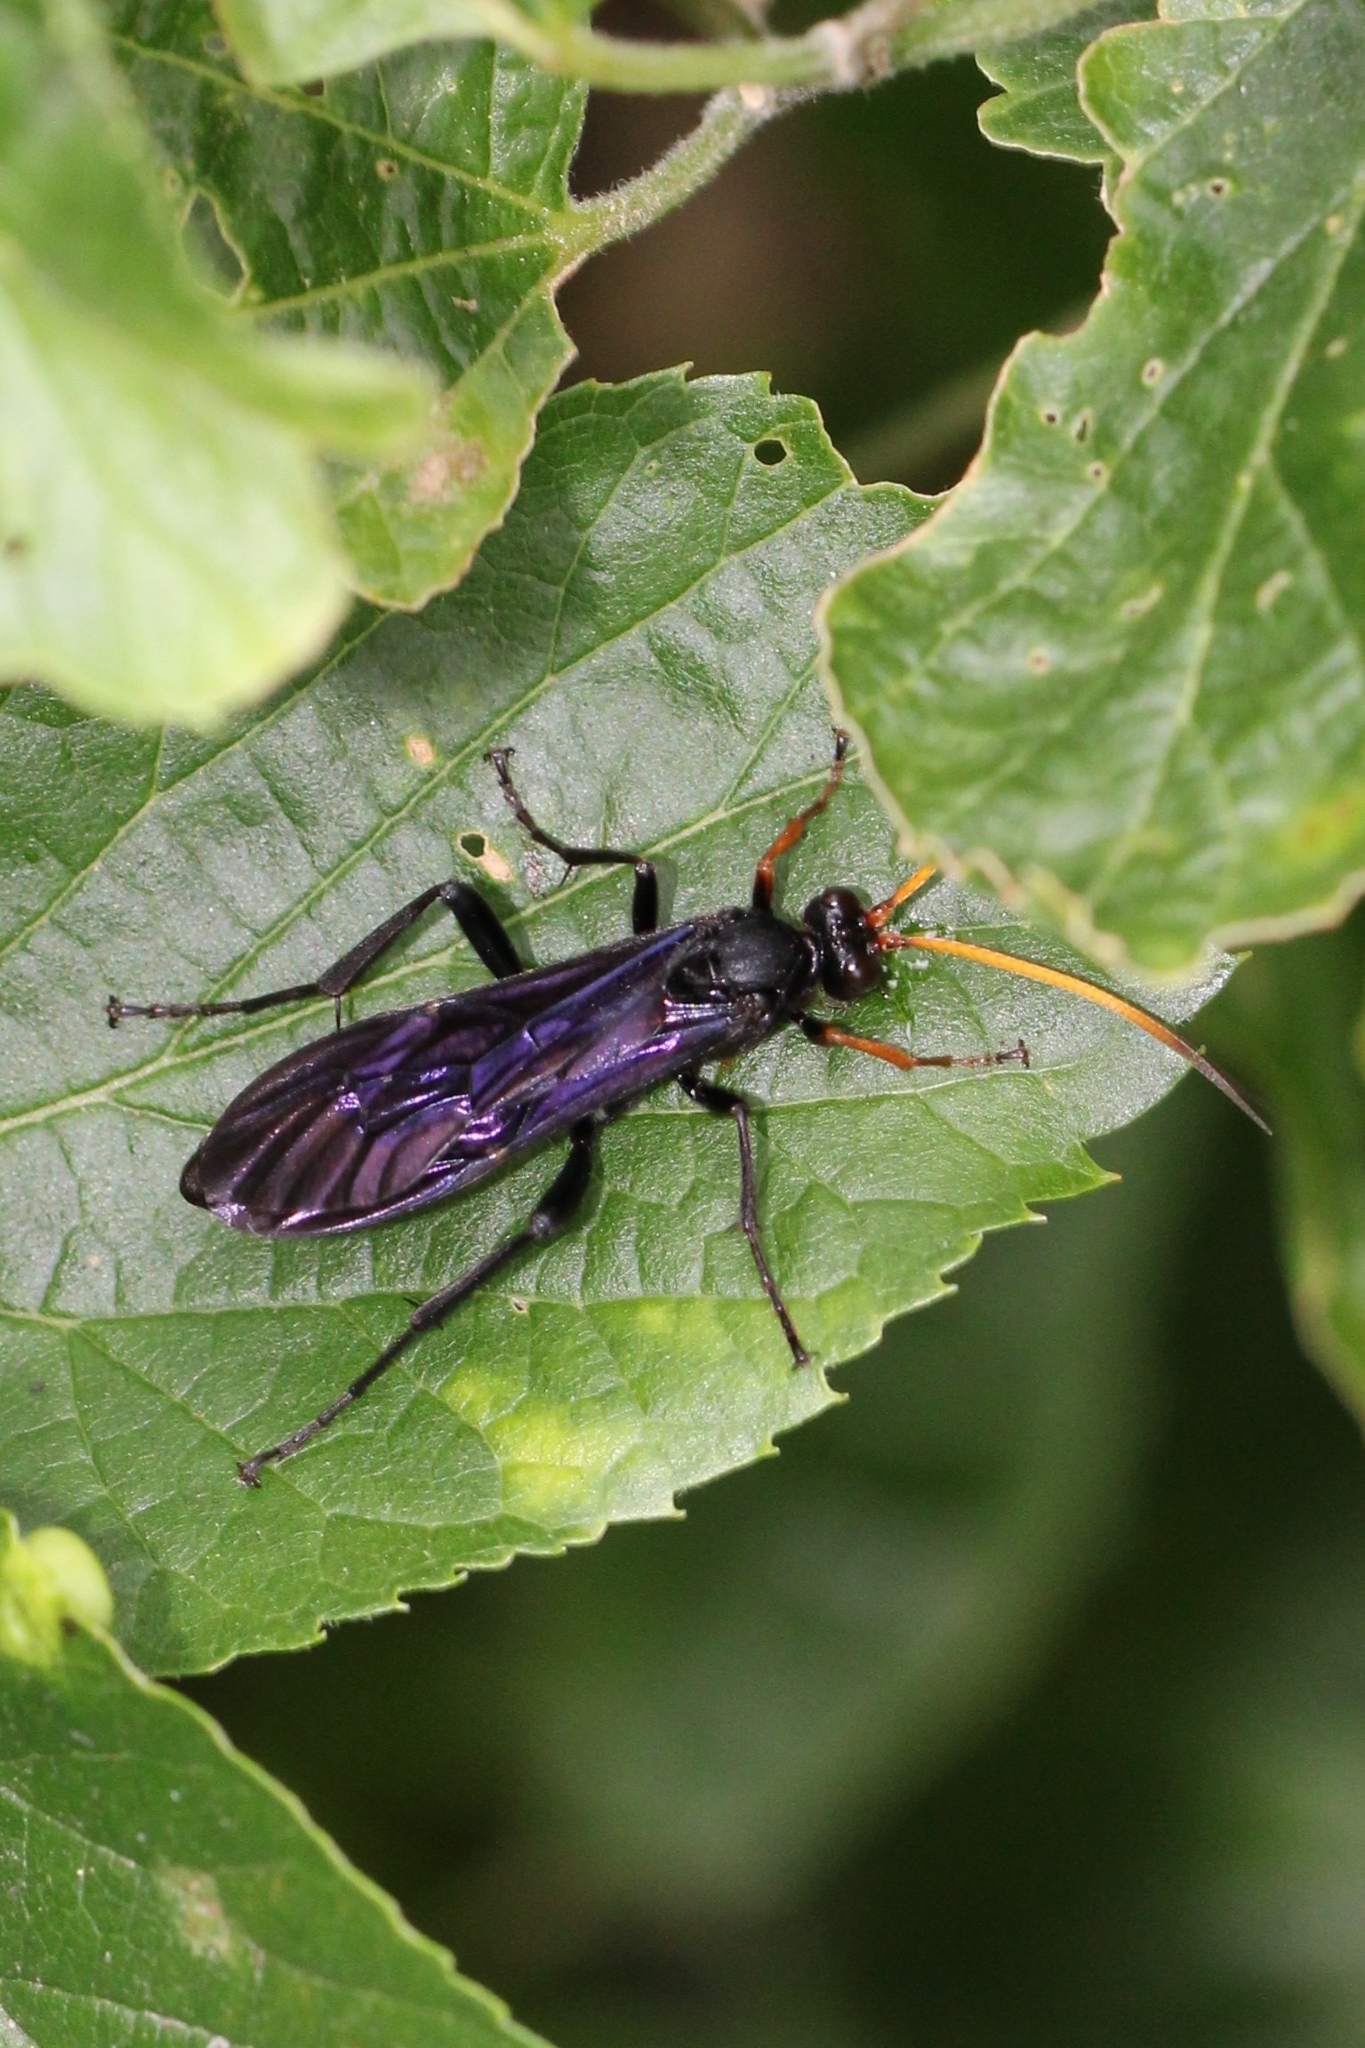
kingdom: Animalia
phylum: Arthropoda
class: Insecta
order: Hymenoptera
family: Ichneumonidae
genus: Gnamptopelta
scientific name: Gnamptopelta obsidianator
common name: Bent-shielded besieger wasp
